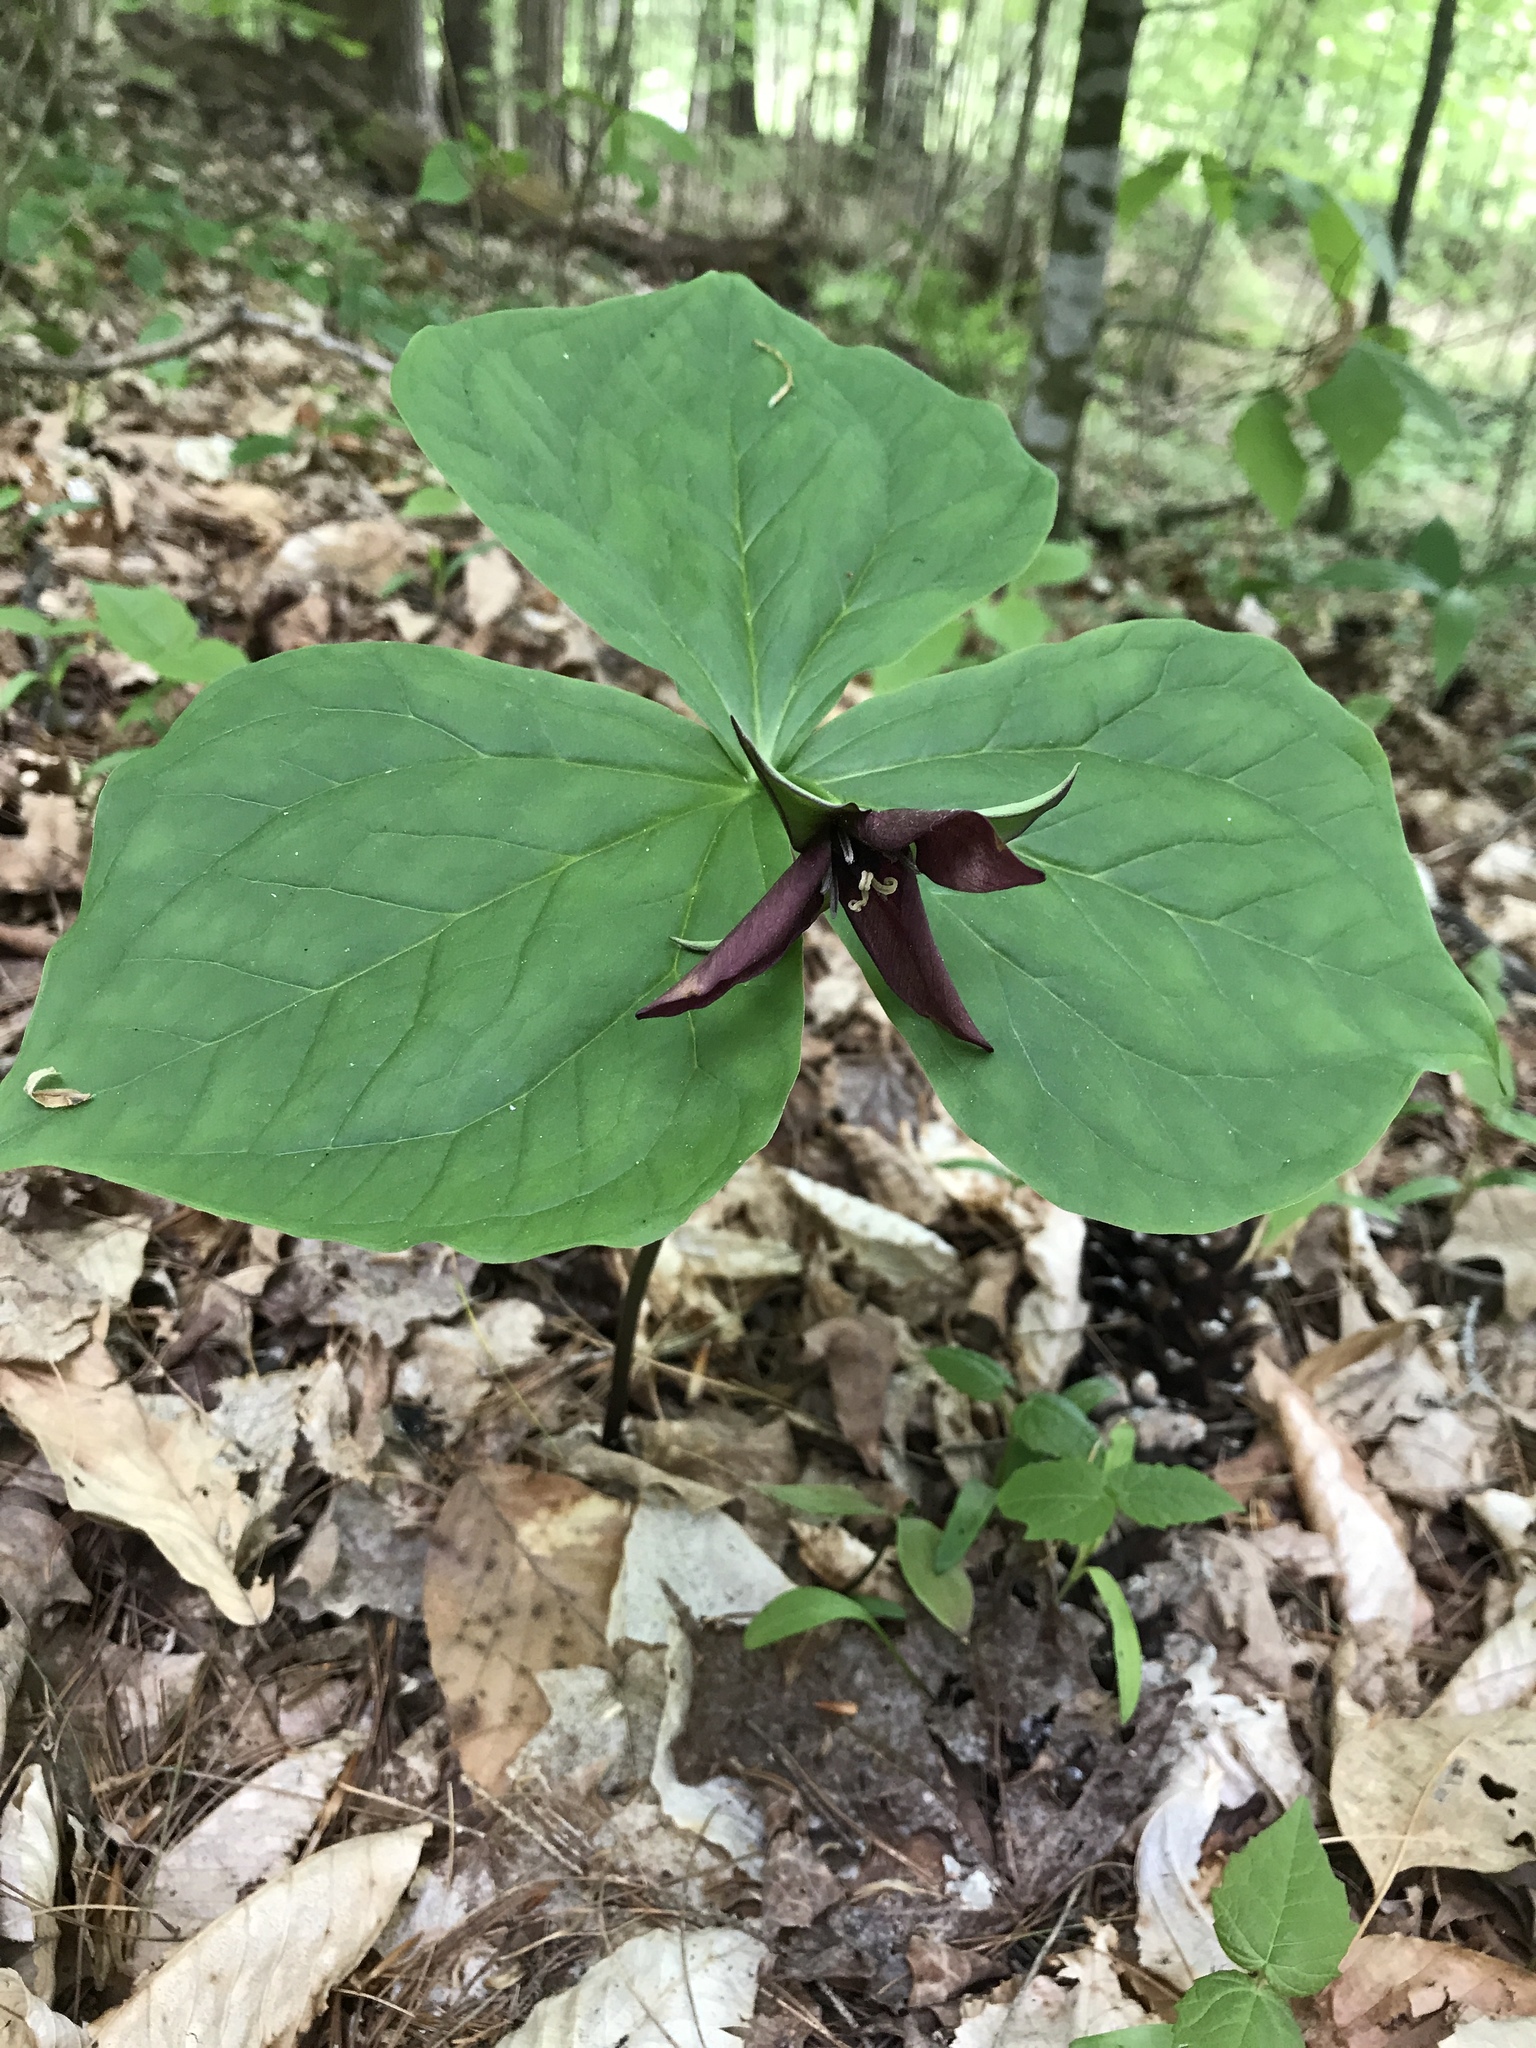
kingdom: Plantae
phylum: Tracheophyta
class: Liliopsida
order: Liliales
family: Melanthiaceae
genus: Trillium
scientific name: Trillium erectum
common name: Purple trillium
